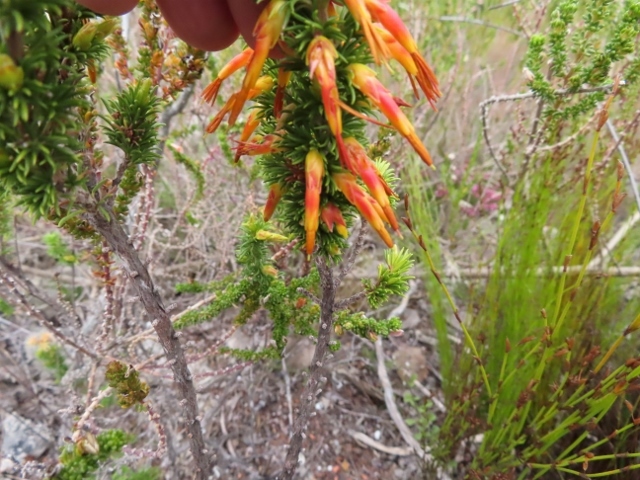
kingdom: Plantae
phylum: Tracheophyta
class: Magnoliopsida
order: Ericales
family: Ericaceae
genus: Erica
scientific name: Erica coccinea
